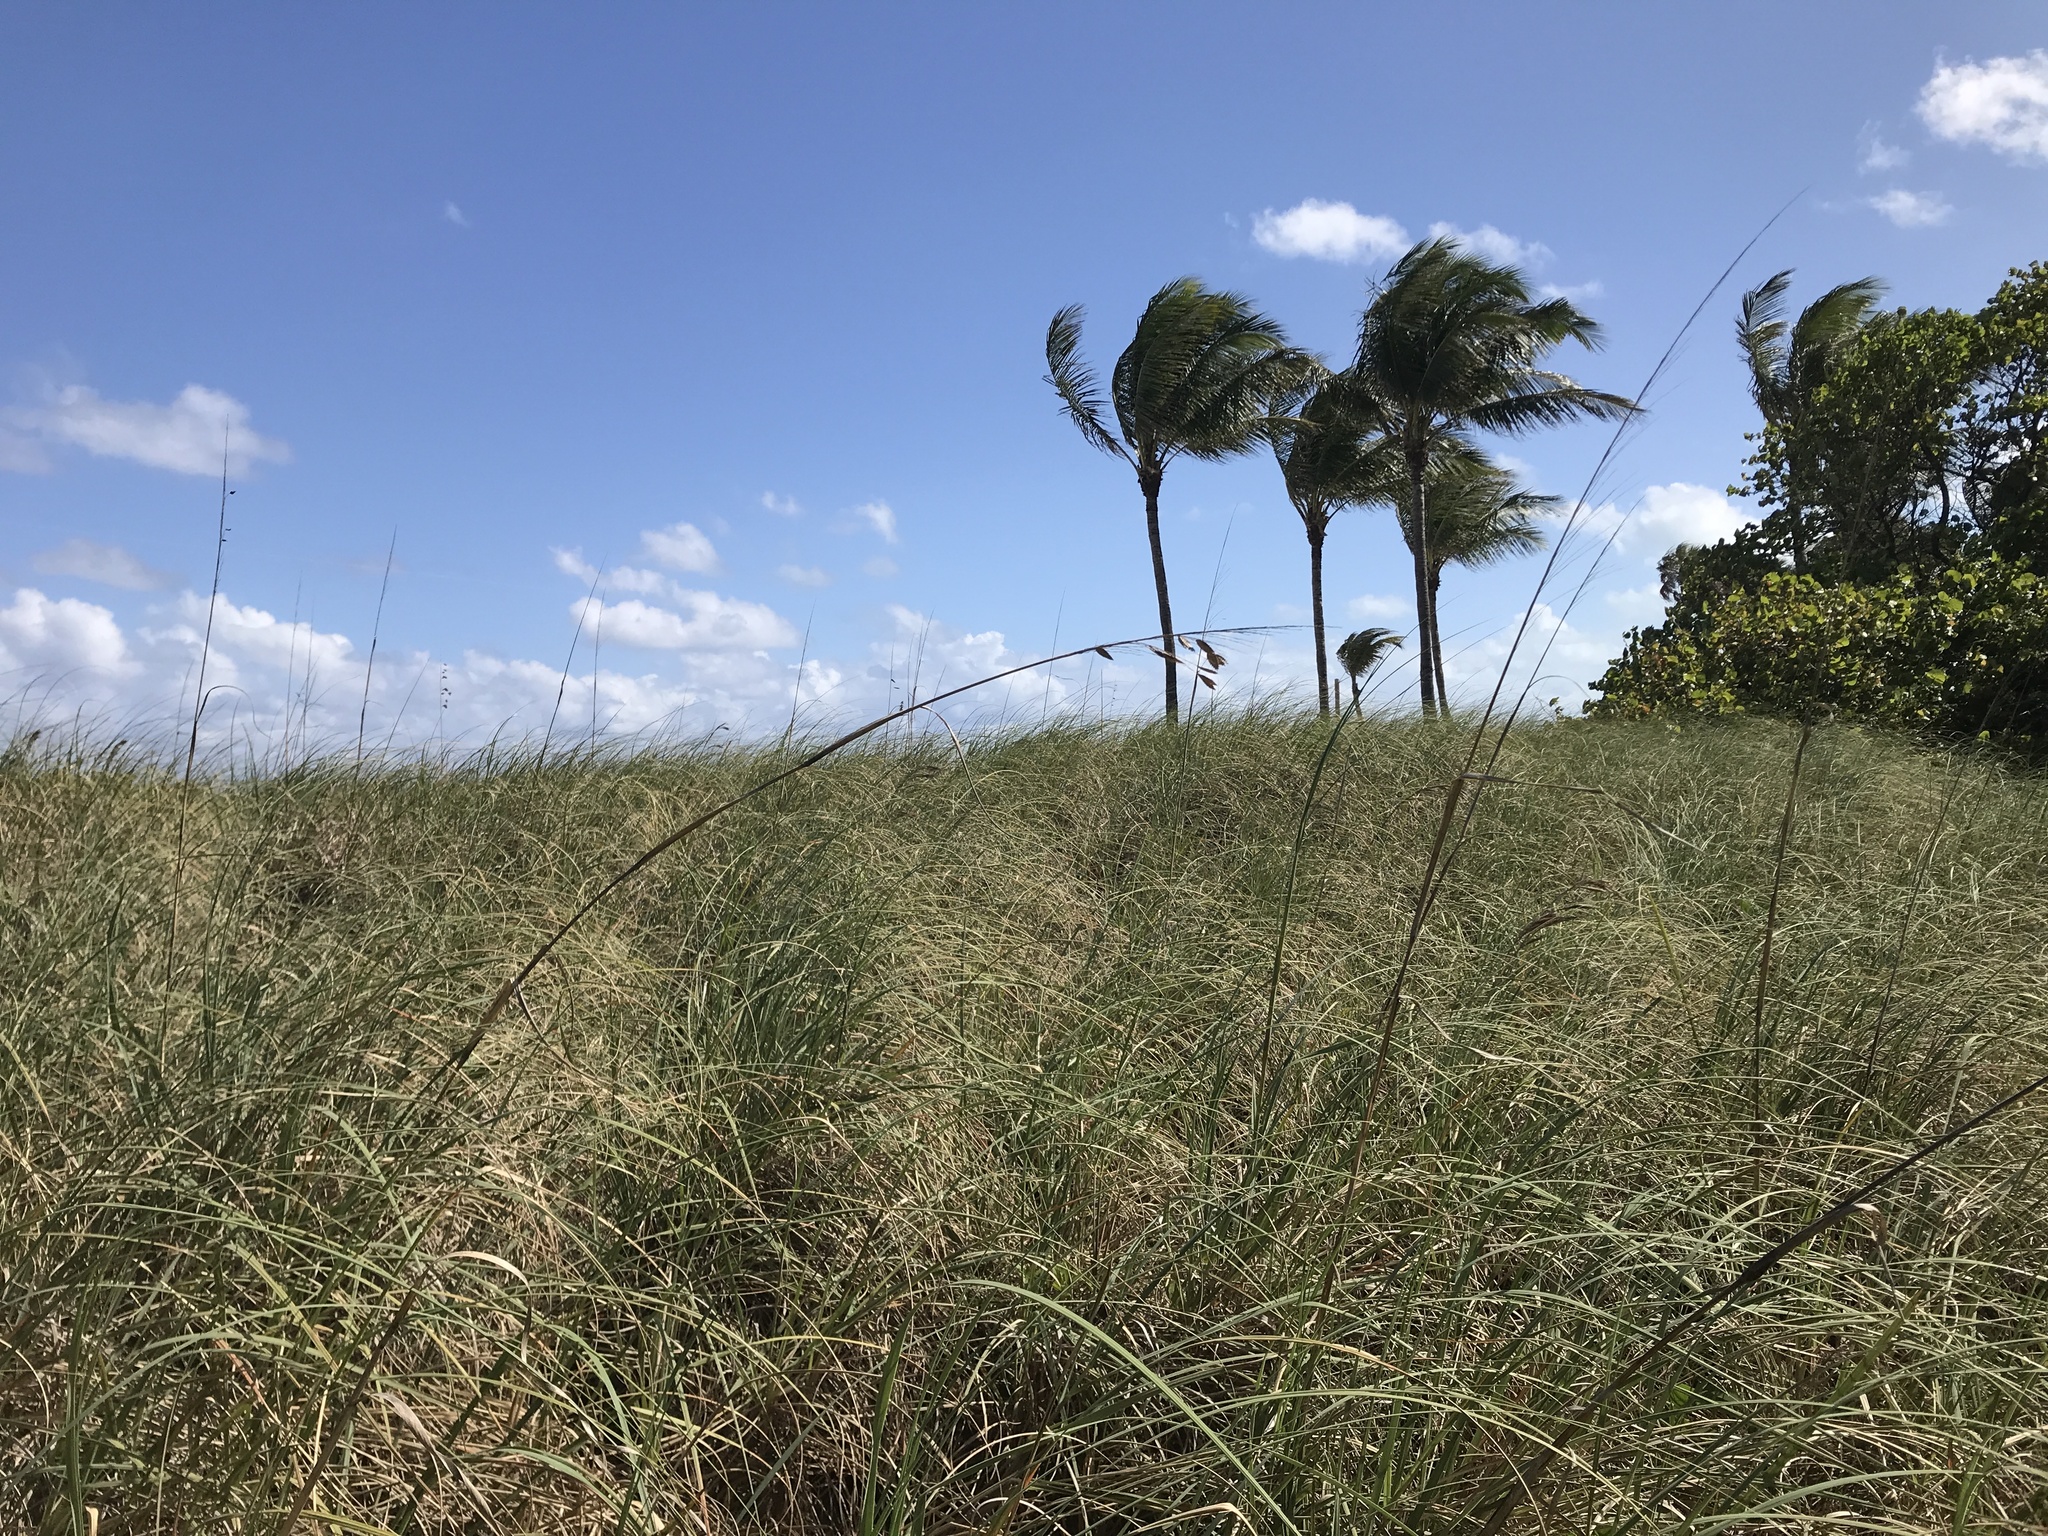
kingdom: Plantae
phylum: Tracheophyta
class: Liliopsida
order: Poales
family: Poaceae
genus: Uniola
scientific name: Uniola paniculata
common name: Seaside-oats
